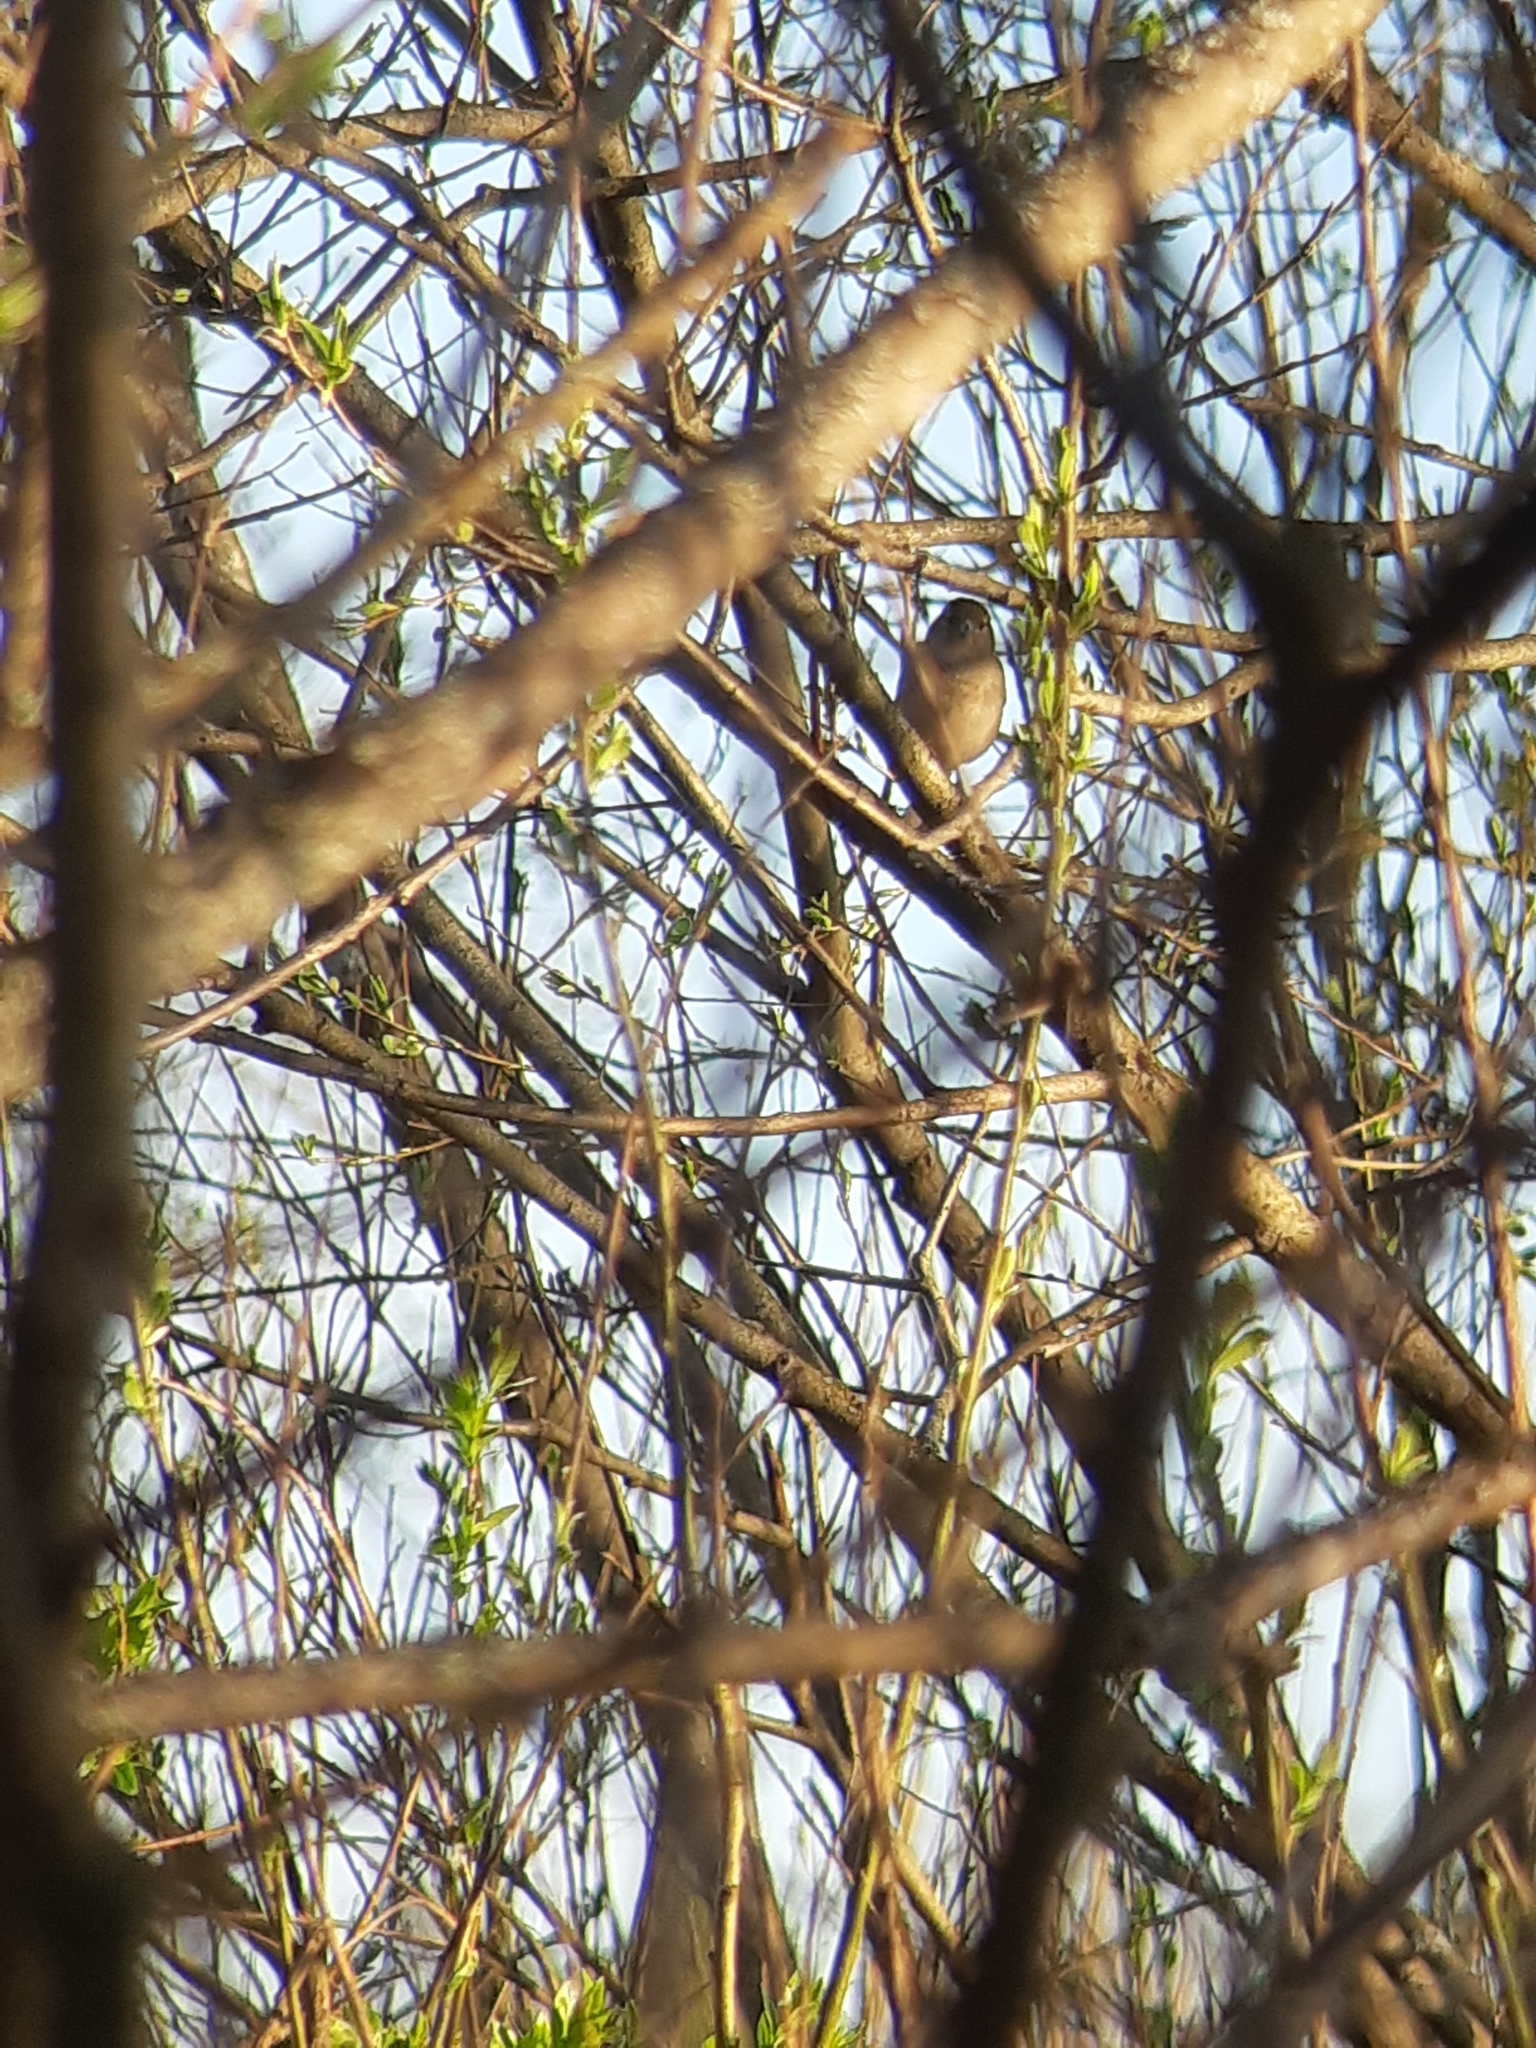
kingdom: Animalia
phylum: Chordata
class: Aves
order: Passeriformes
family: Fringillidae
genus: Fringilla
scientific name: Fringilla coelebs
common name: Common chaffinch
